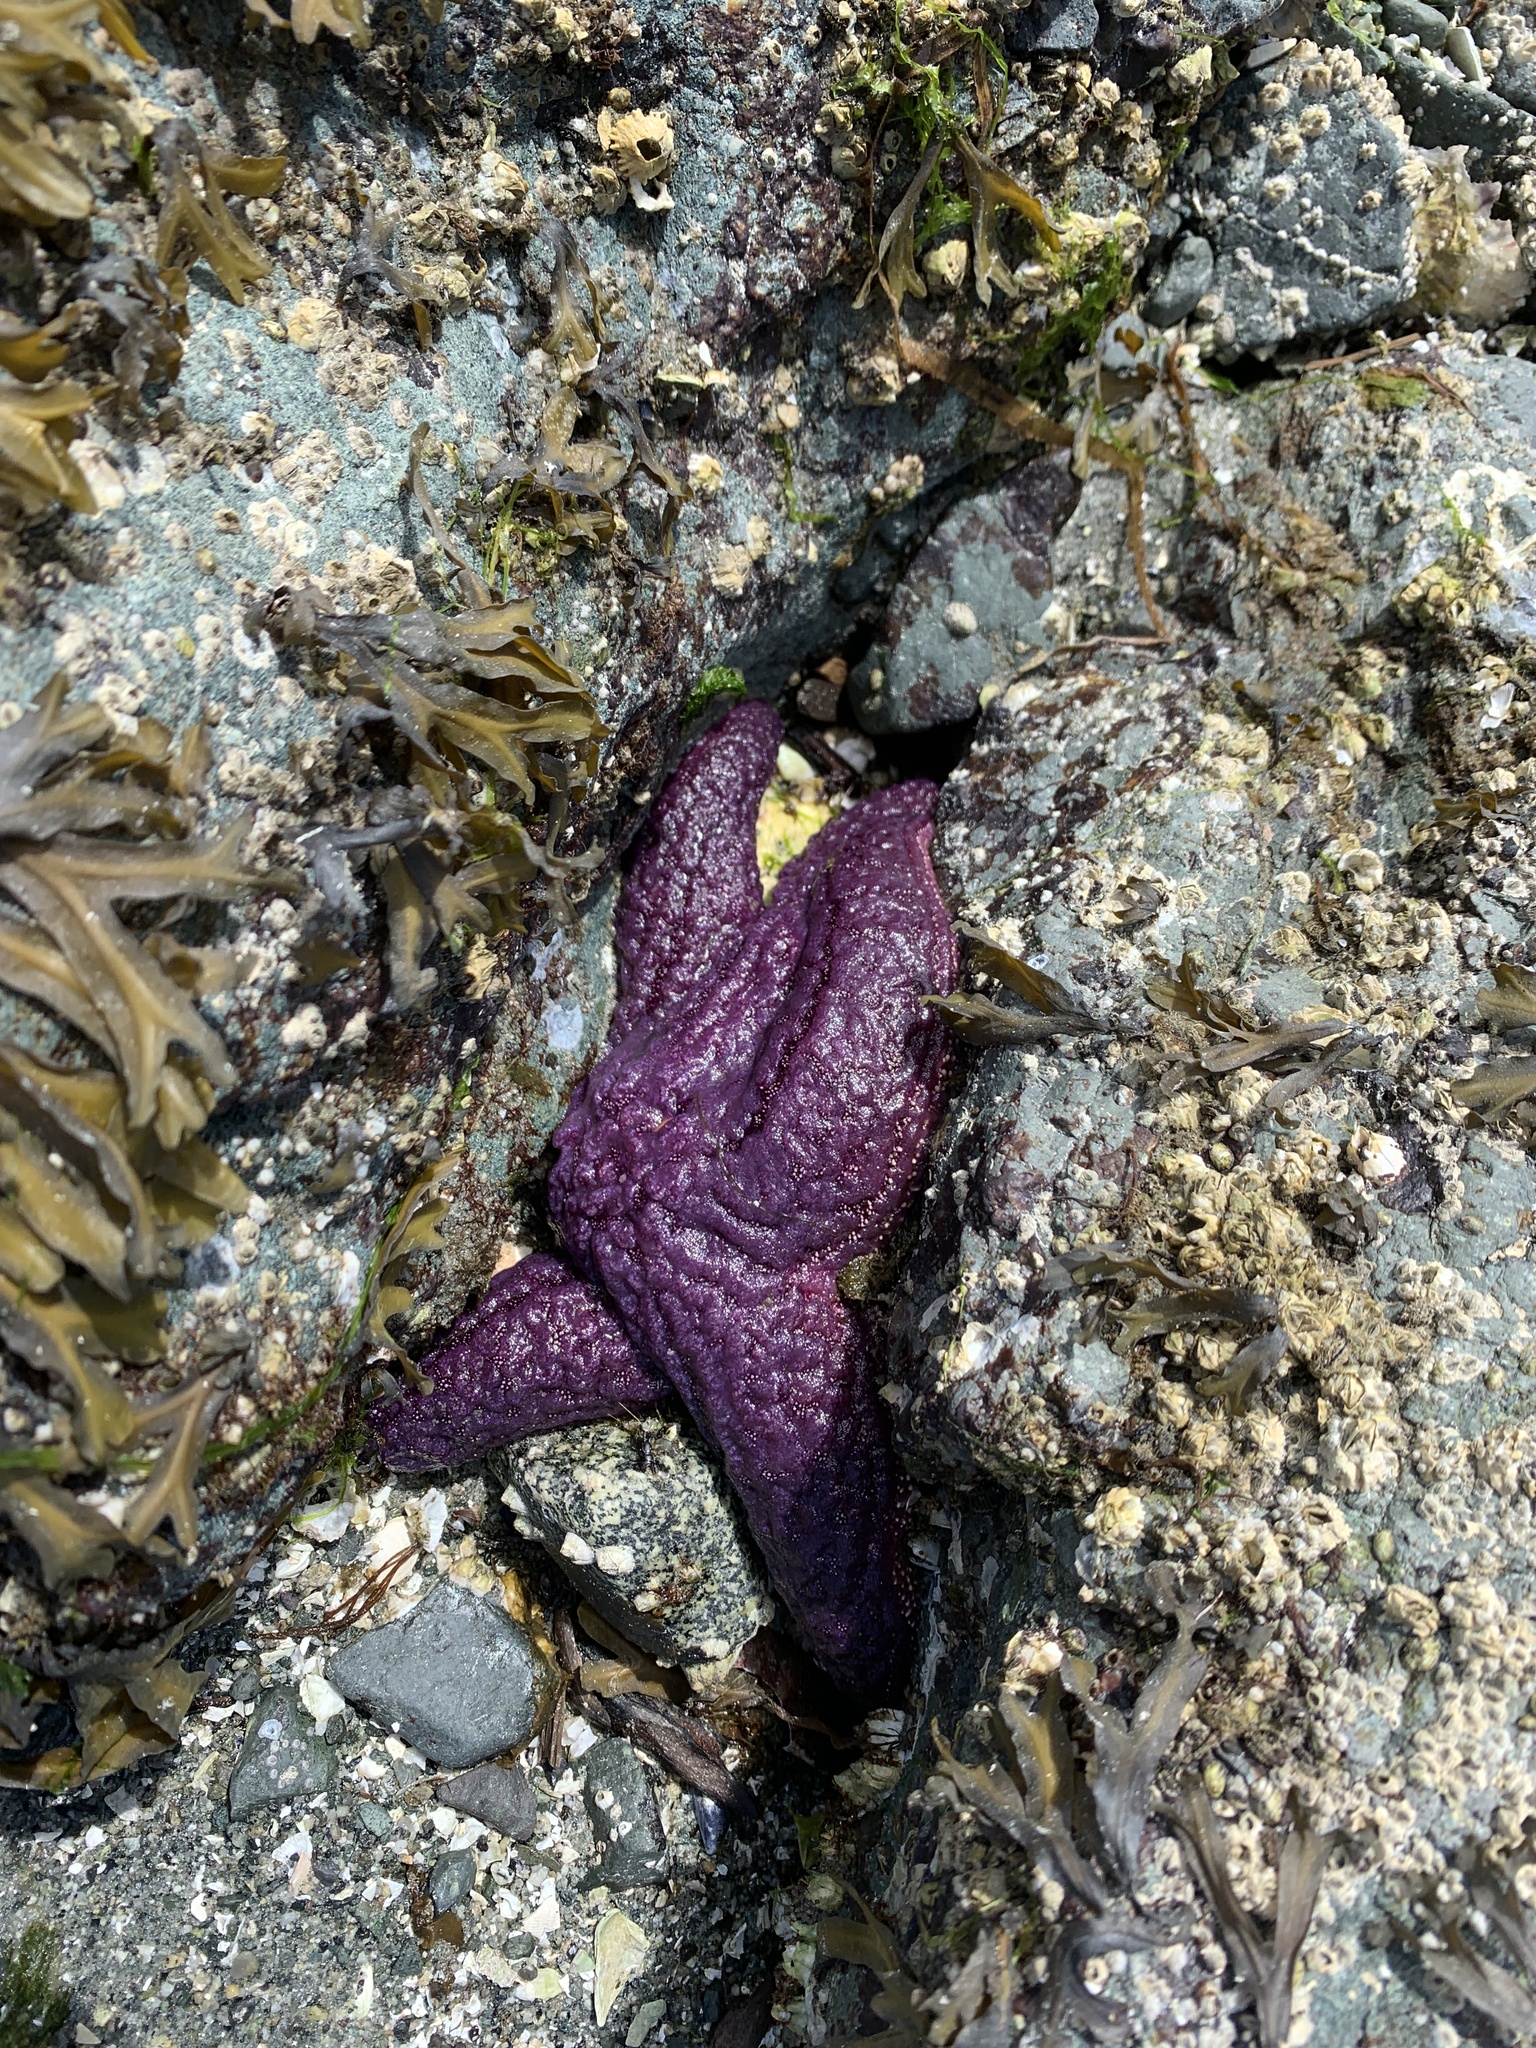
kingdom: Animalia
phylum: Echinodermata
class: Asteroidea
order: Forcipulatida
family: Asteriidae
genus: Pisaster
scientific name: Pisaster ochraceus
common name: Ochre stars
